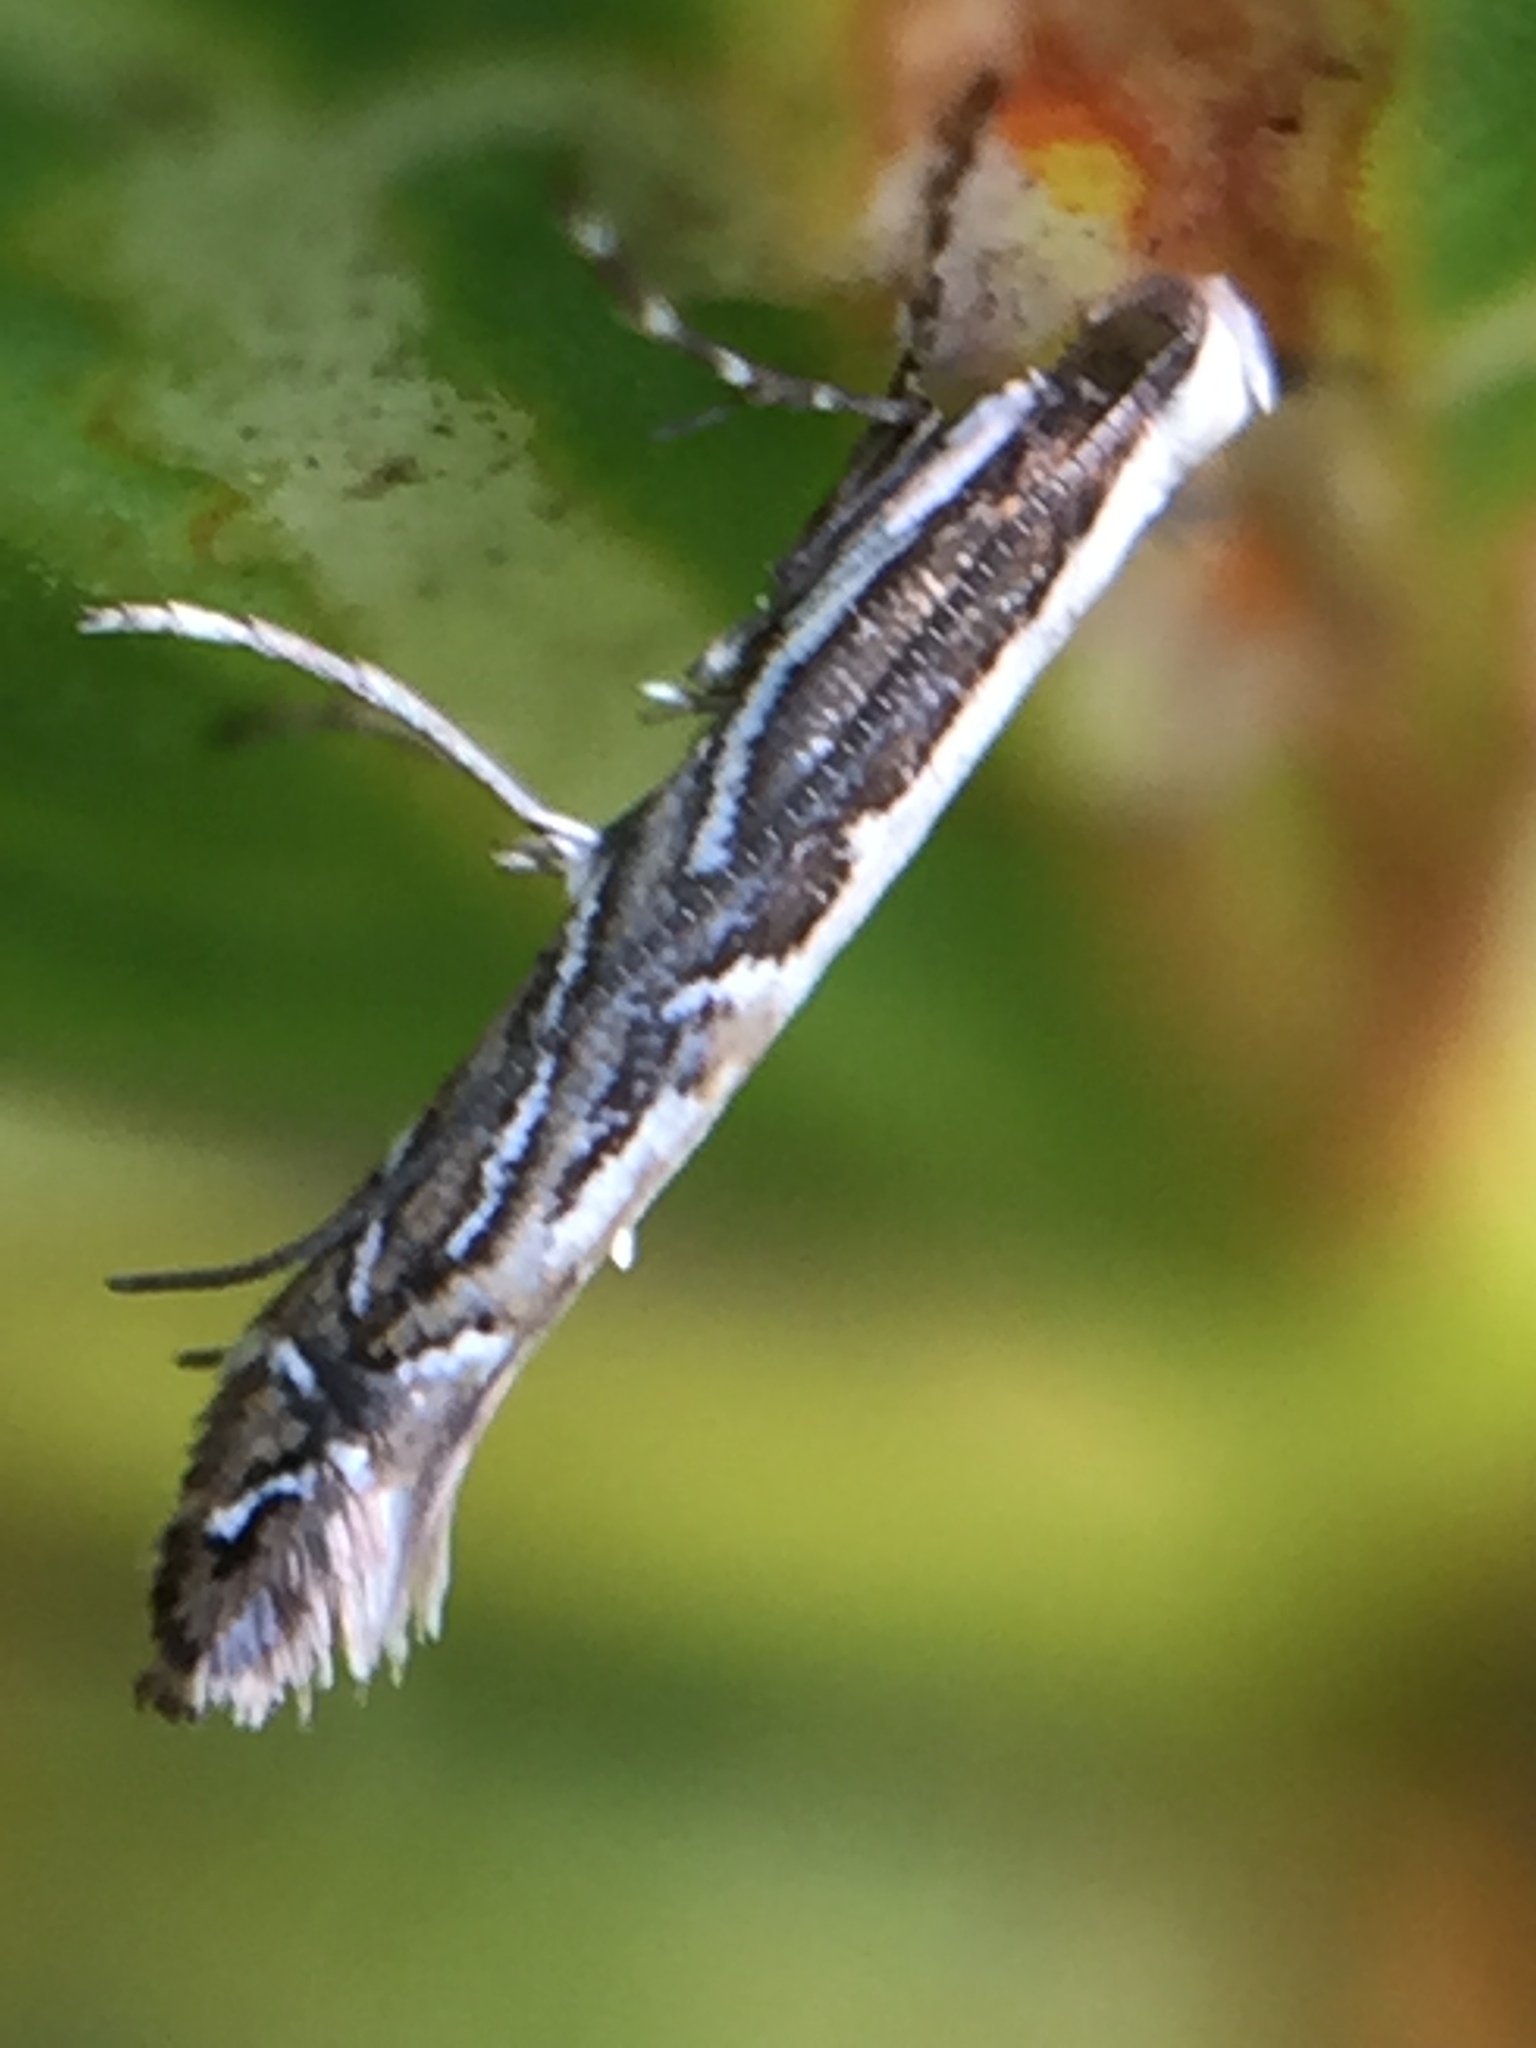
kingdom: Animalia
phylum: Arthropoda
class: Insecta
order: Lepidoptera
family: Gracillariidae
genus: Parectopa
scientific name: Parectopa alysidota
